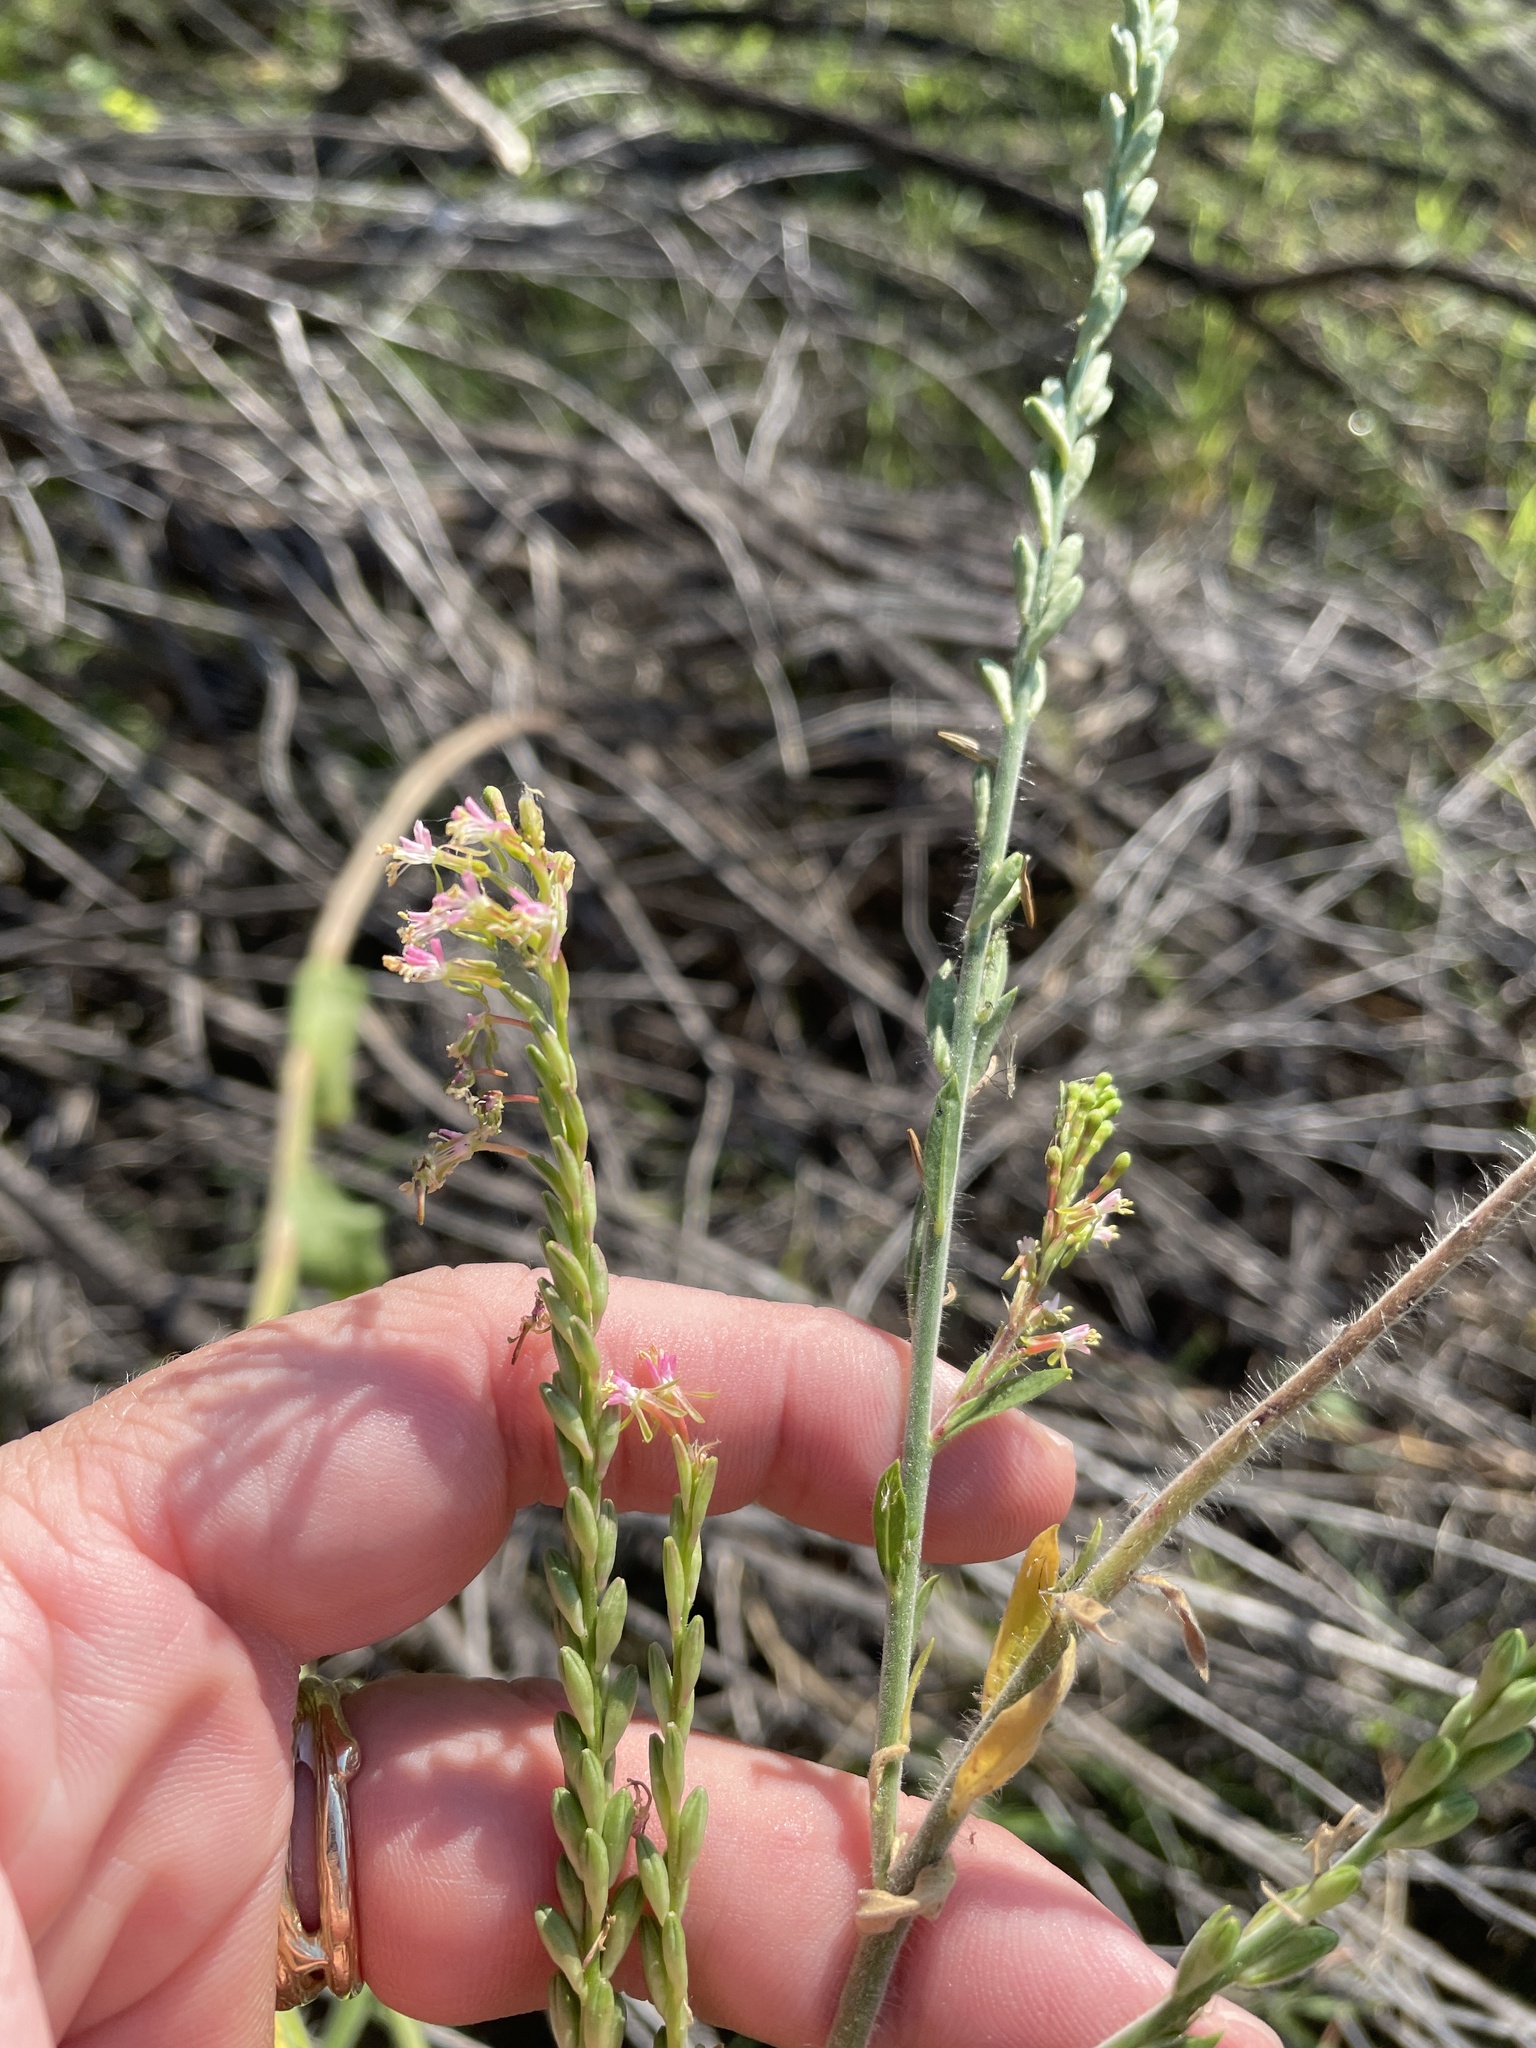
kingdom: Plantae
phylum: Tracheophyta
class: Magnoliopsida
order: Myrtales
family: Onagraceae
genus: Oenothera
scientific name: Oenothera curtiflora
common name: Velvetweed
